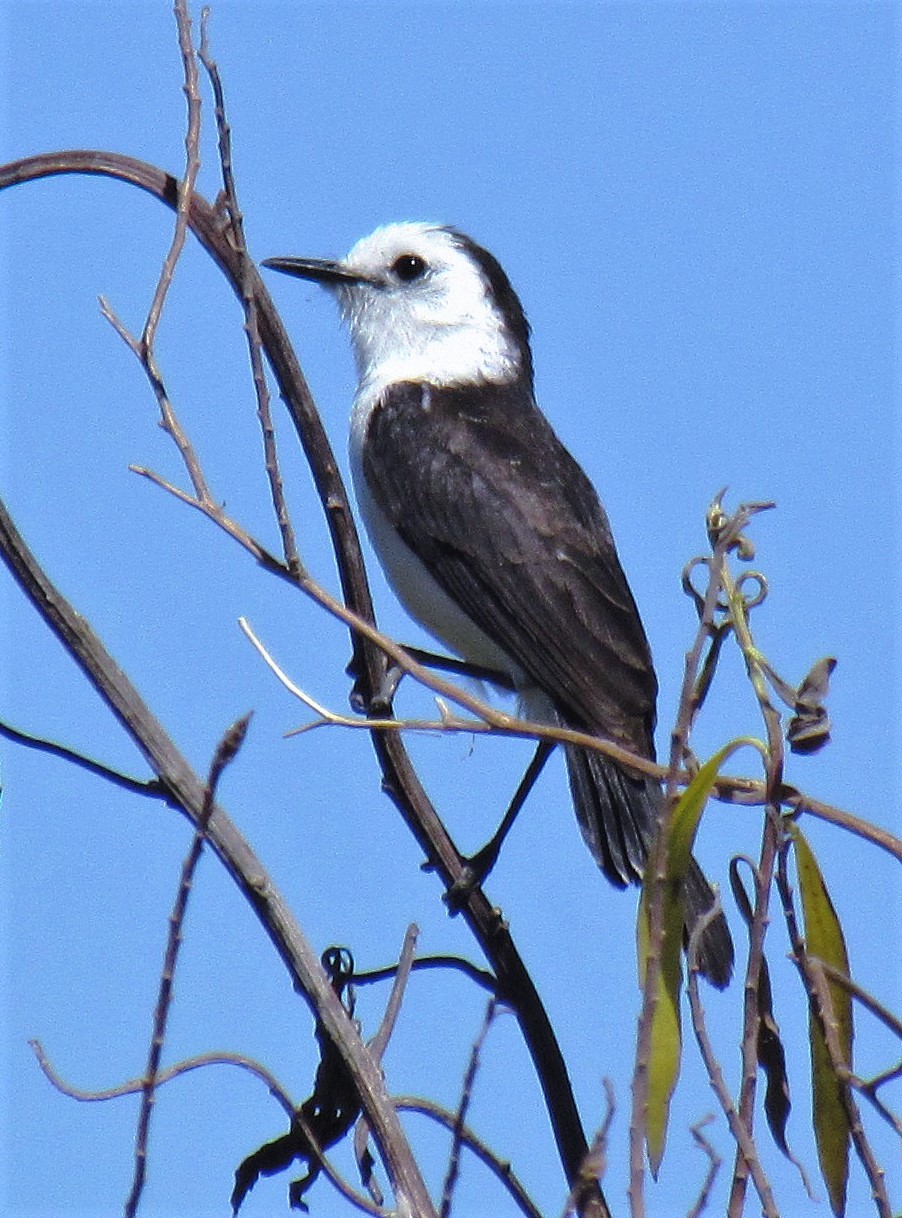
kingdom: Animalia
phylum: Chordata
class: Aves
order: Passeriformes
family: Tyrannidae
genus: Fluvicola
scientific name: Fluvicola pica
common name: Pied water-tyrant
